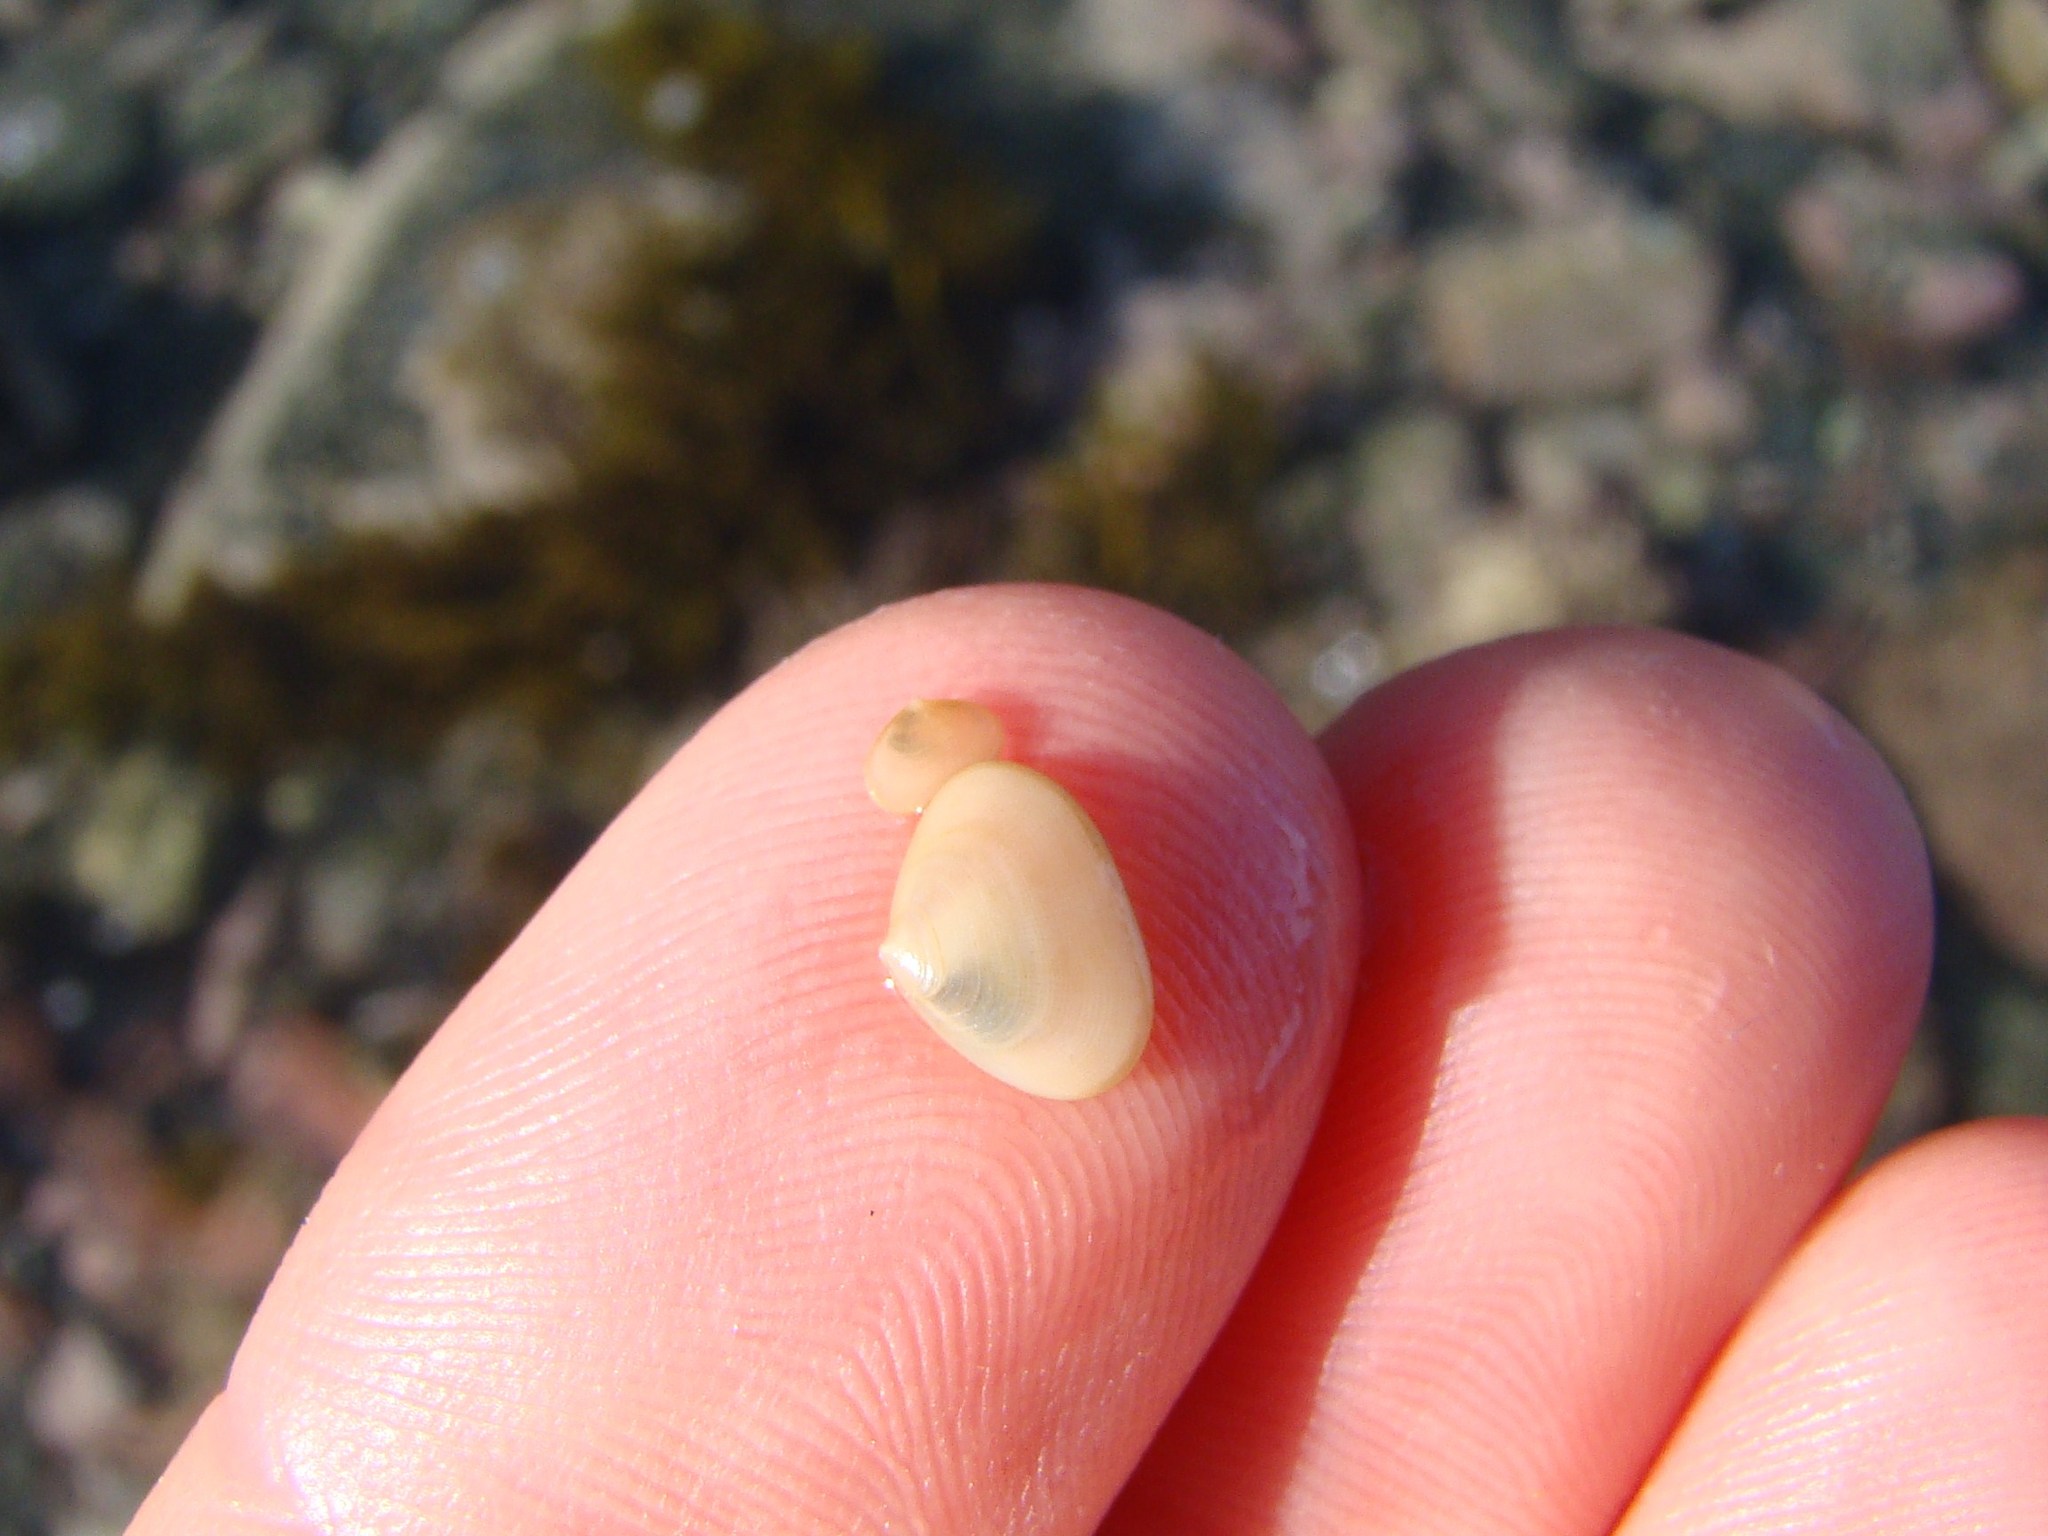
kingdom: Animalia
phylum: Mollusca
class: Bivalvia
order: Galeommatida
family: Lasaeidae
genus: Borniola
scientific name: Borniola reniformis
